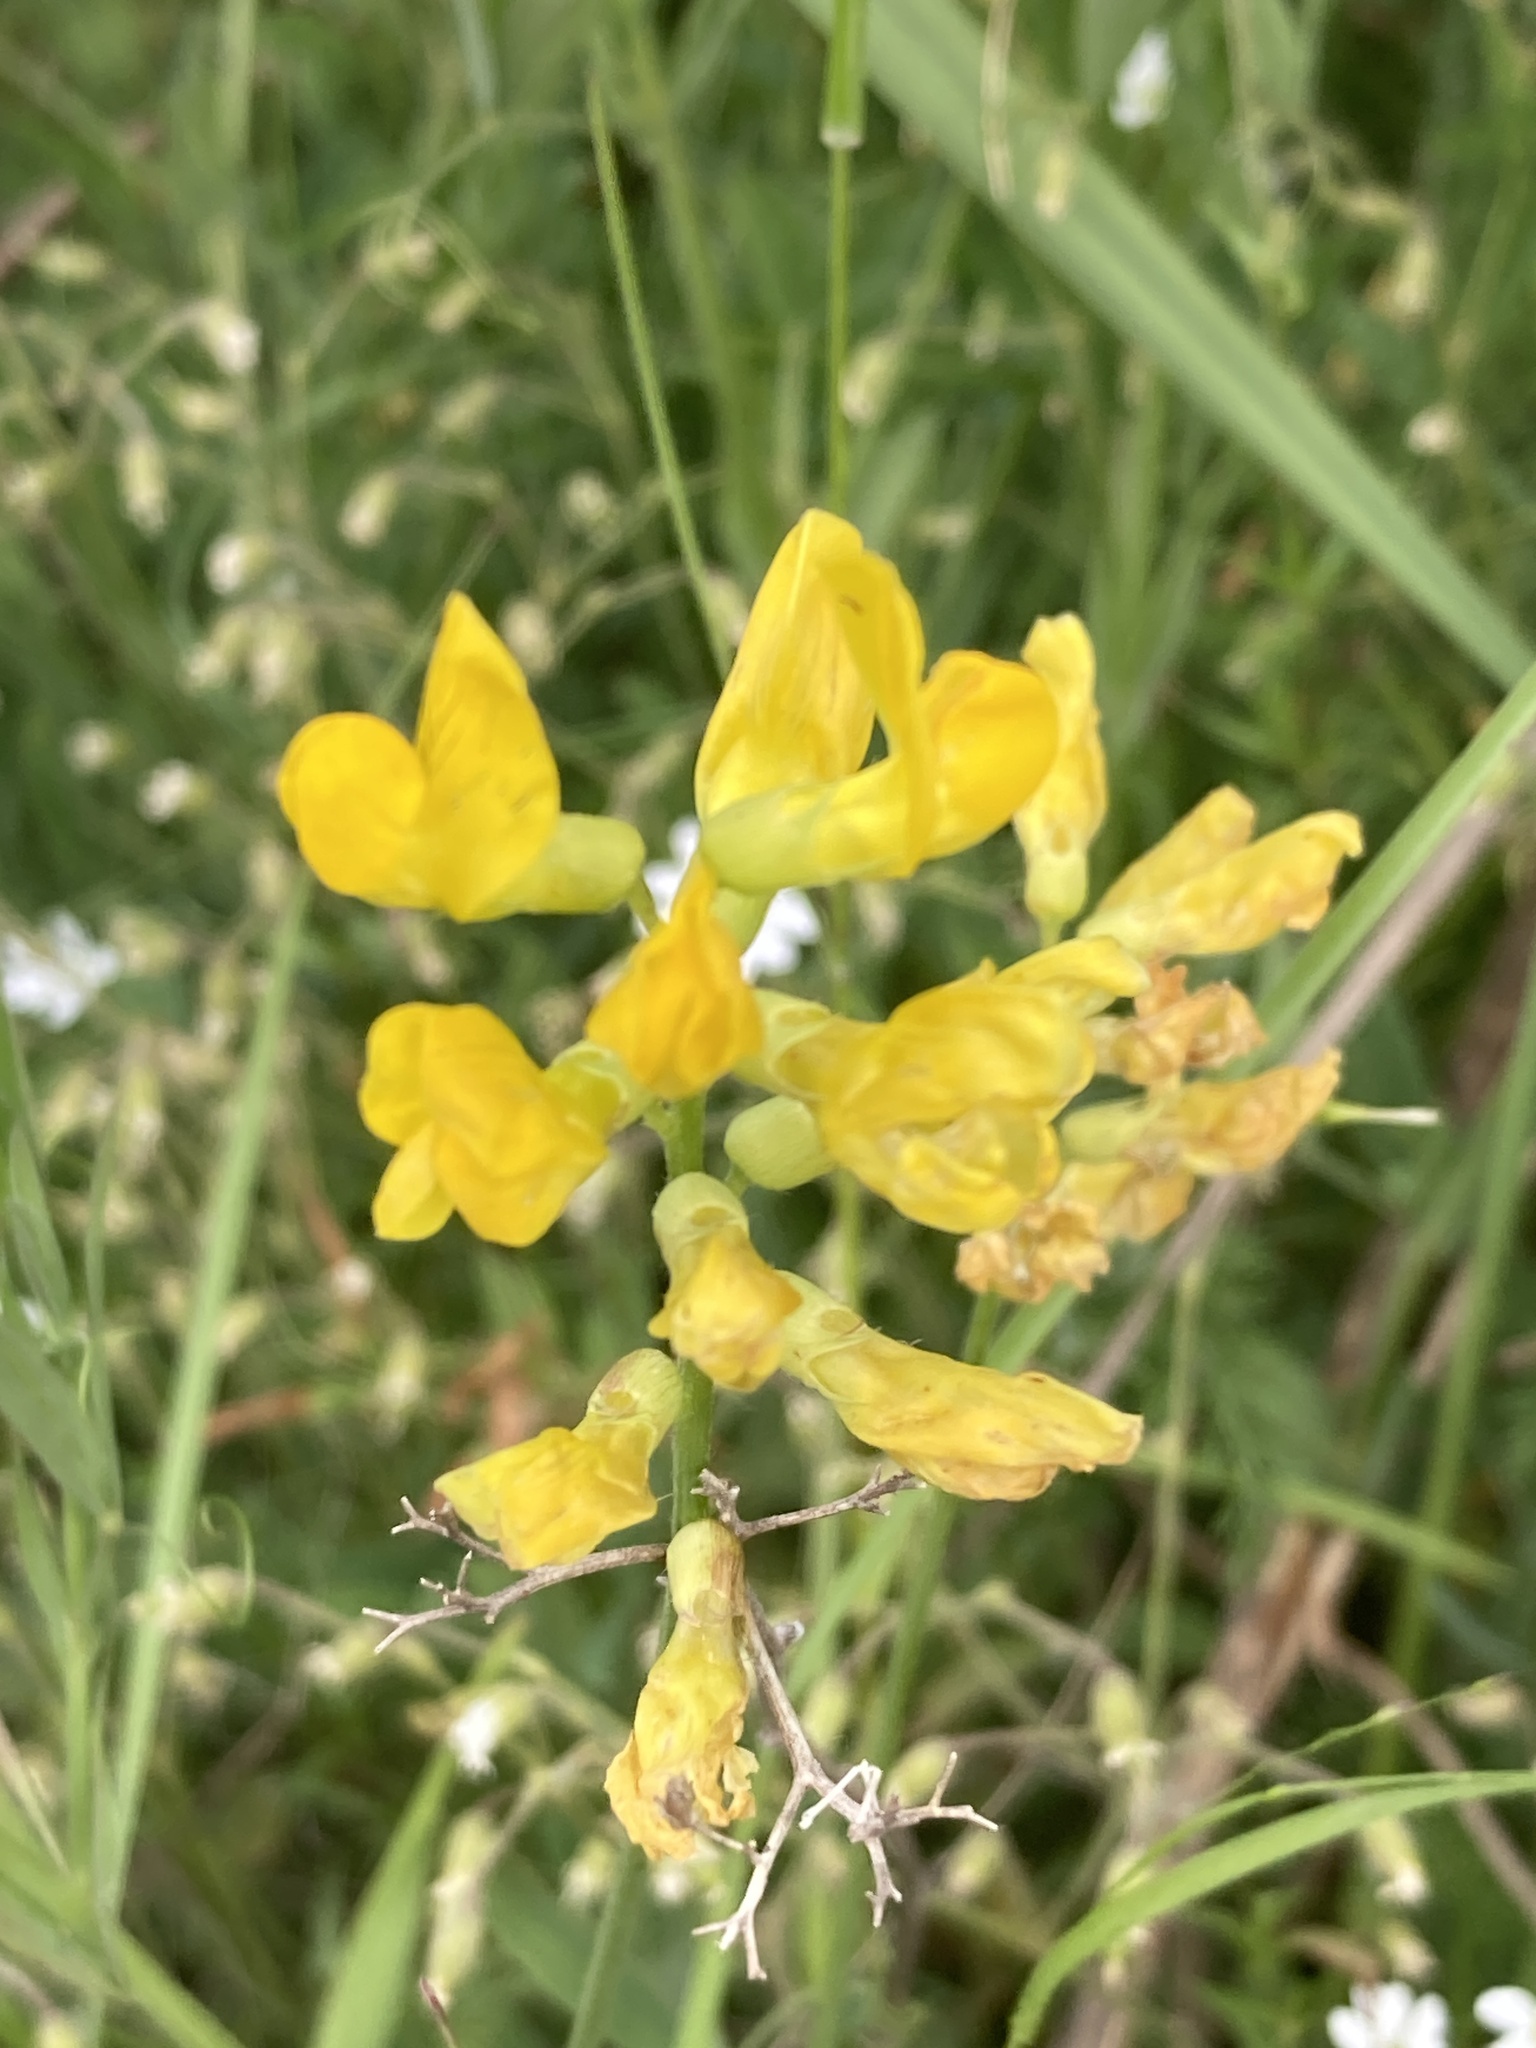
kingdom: Plantae
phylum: Tracheophyta
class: Magnoliopsida
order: Fabales
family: Fabaceae
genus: Lathyrus
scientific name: Lathyrus pratensis
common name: Meadow vetchling
